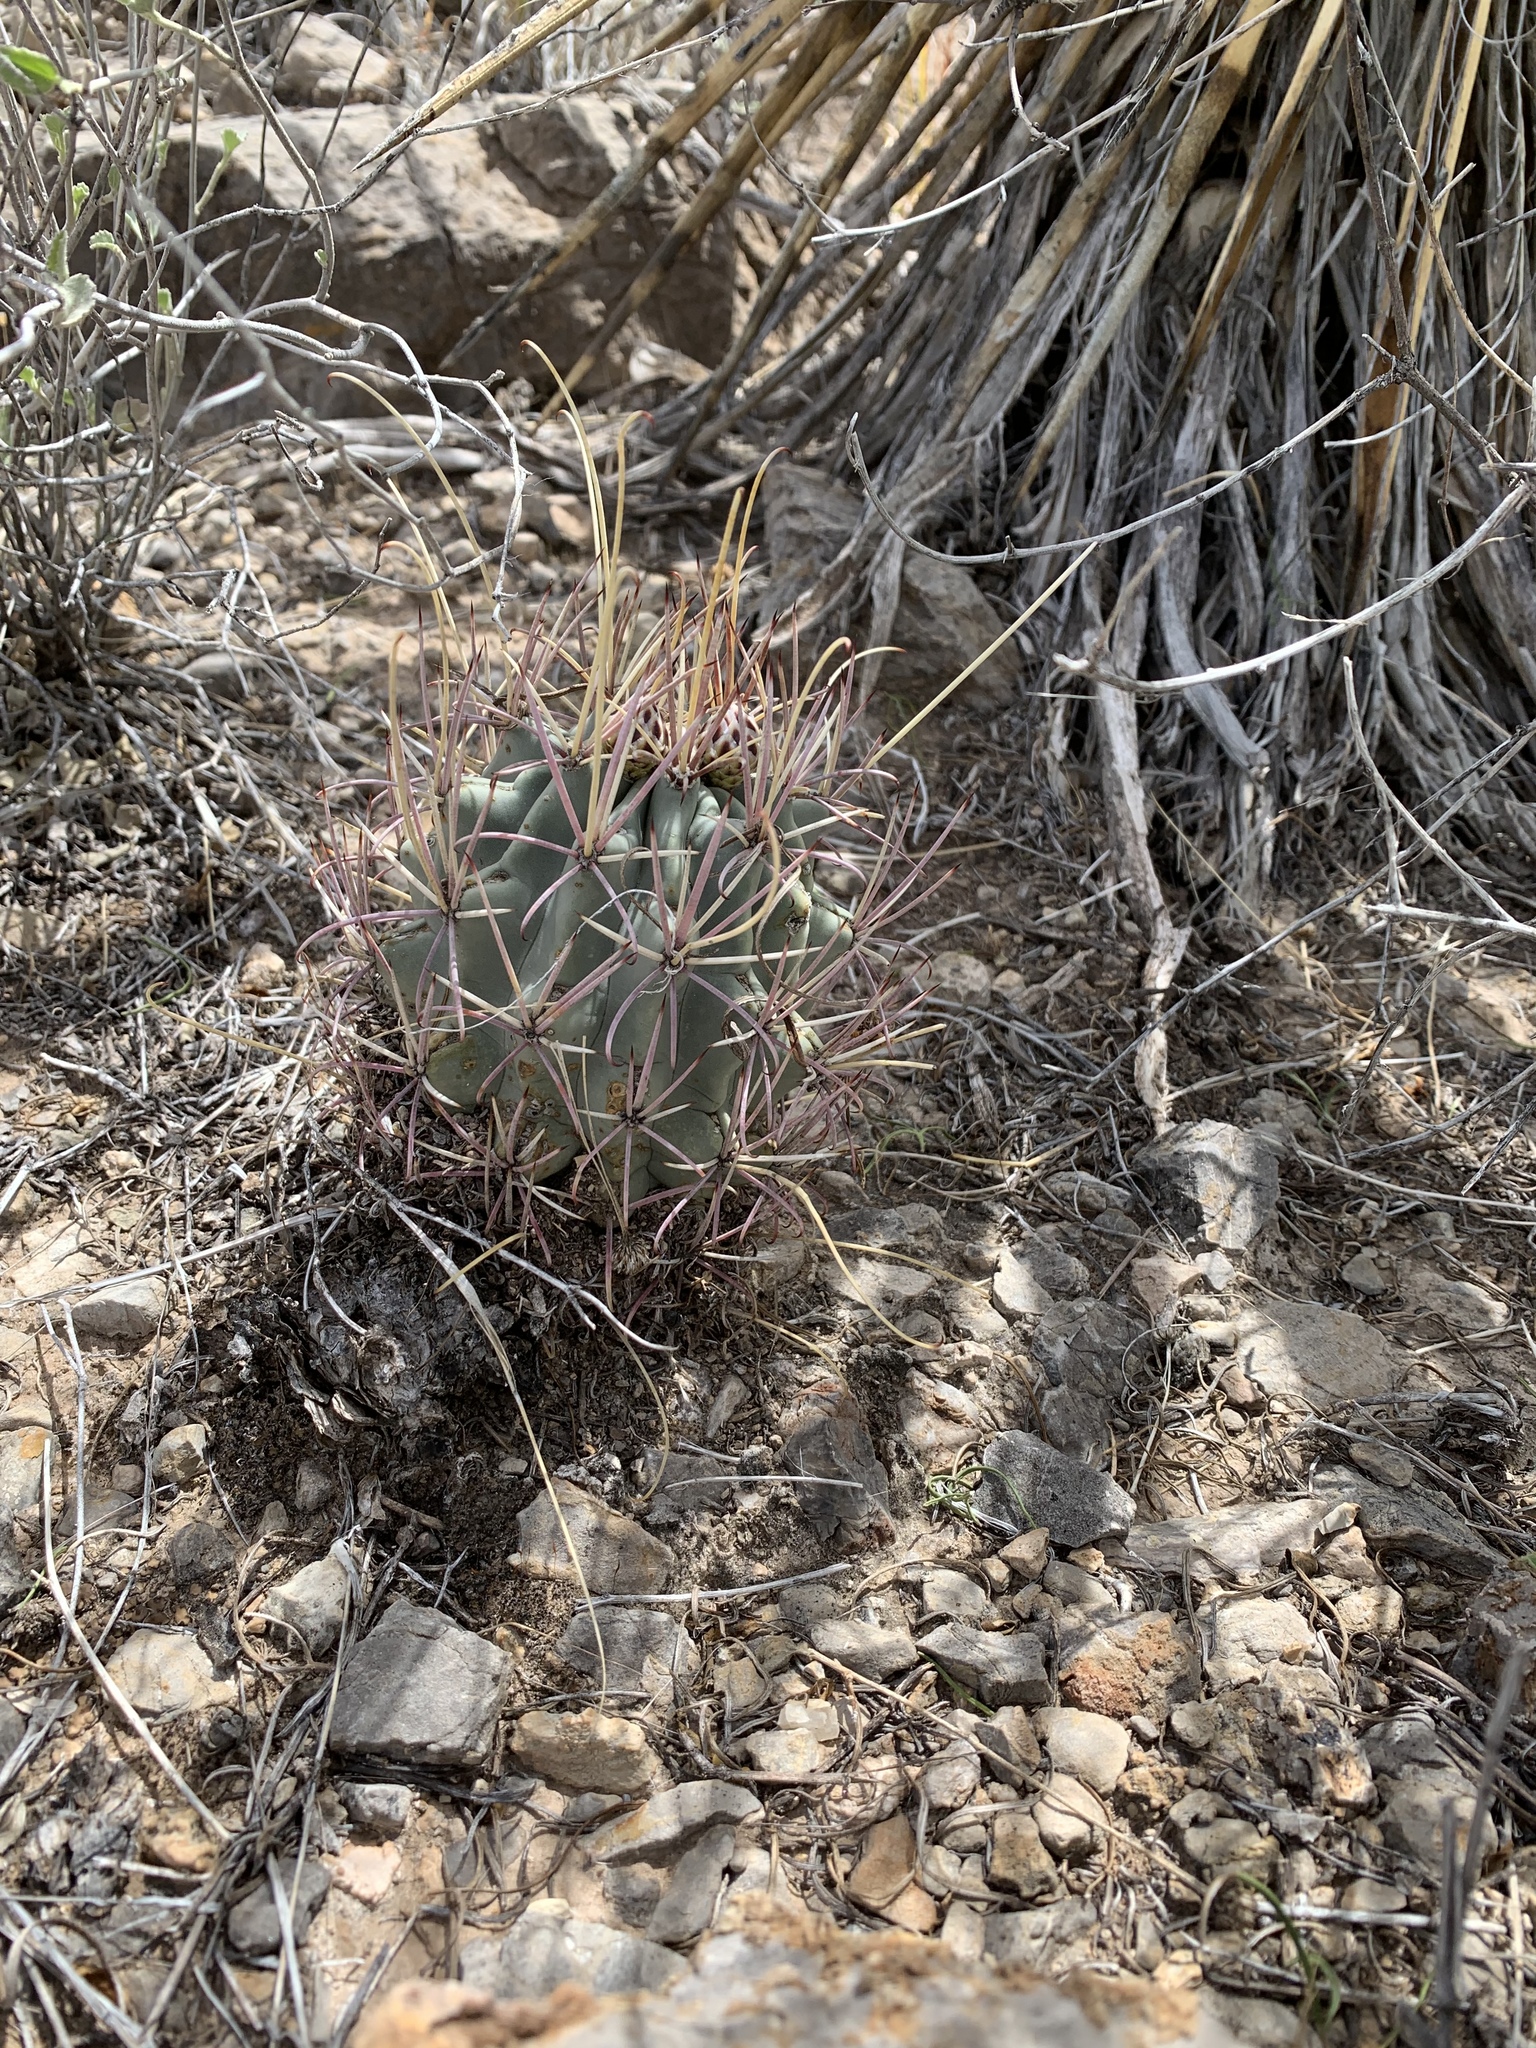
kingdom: Plantae
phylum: Tracheophyta
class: Magnoliopsida
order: Caryophyllales
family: Cactaceae
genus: Ferocactus
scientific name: Ferocactus uncinatus
